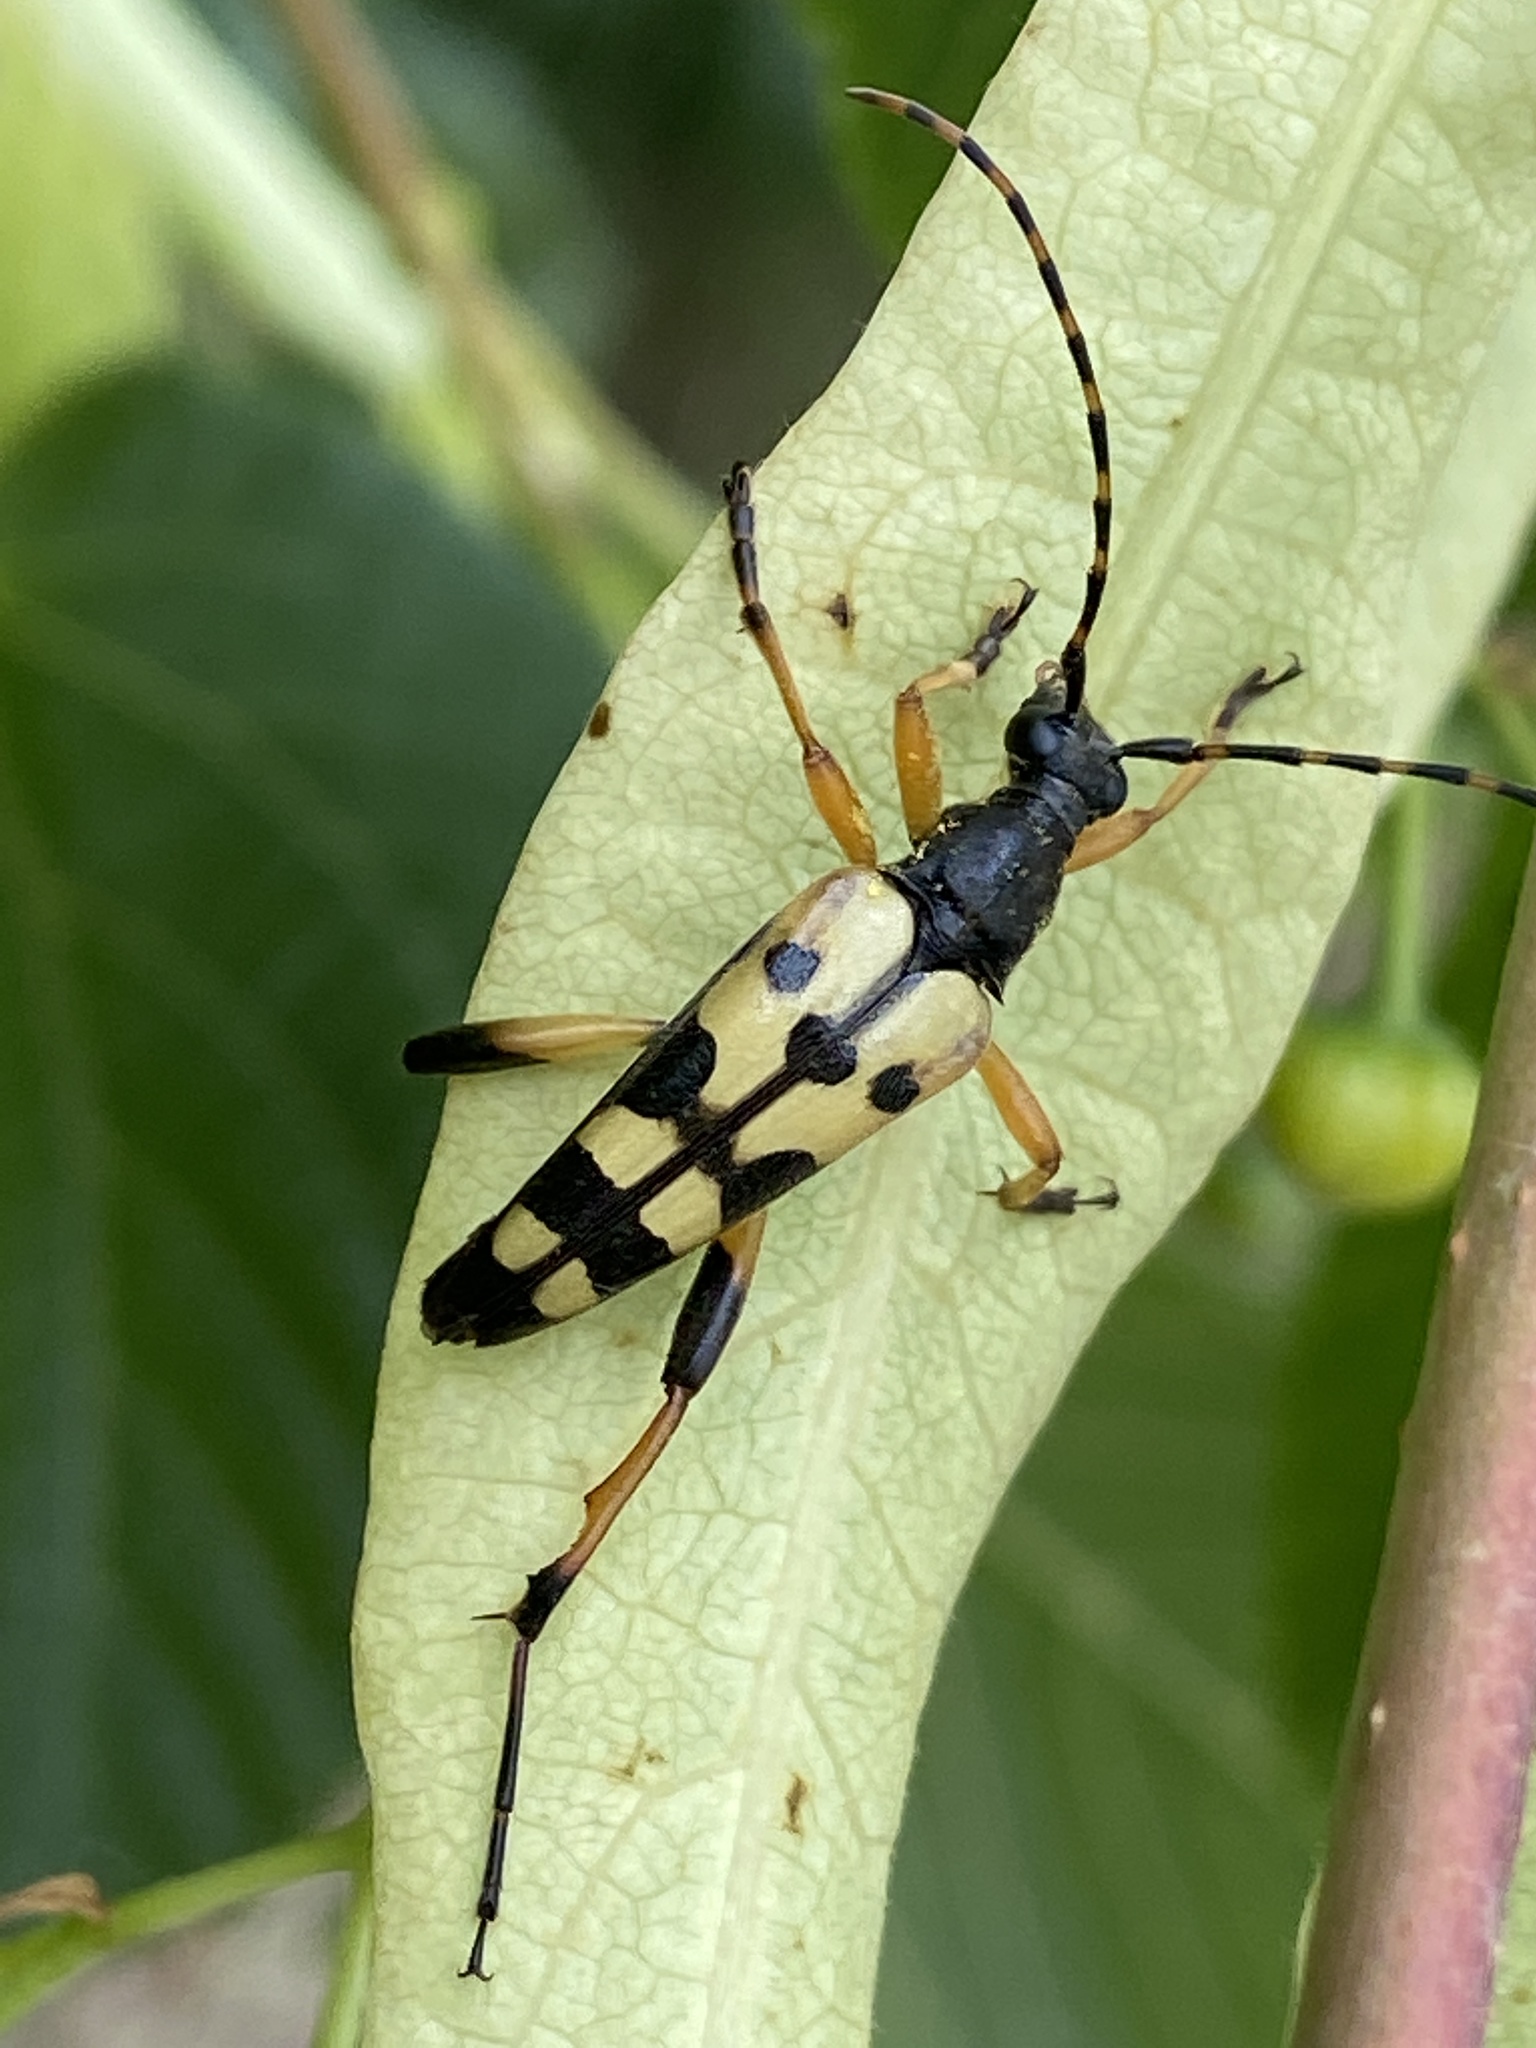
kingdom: Animalia
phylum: Arthropoda
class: Insecta
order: Coleoptera
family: Cerambycidae
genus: Rutpela
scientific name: Rutpela maculata
